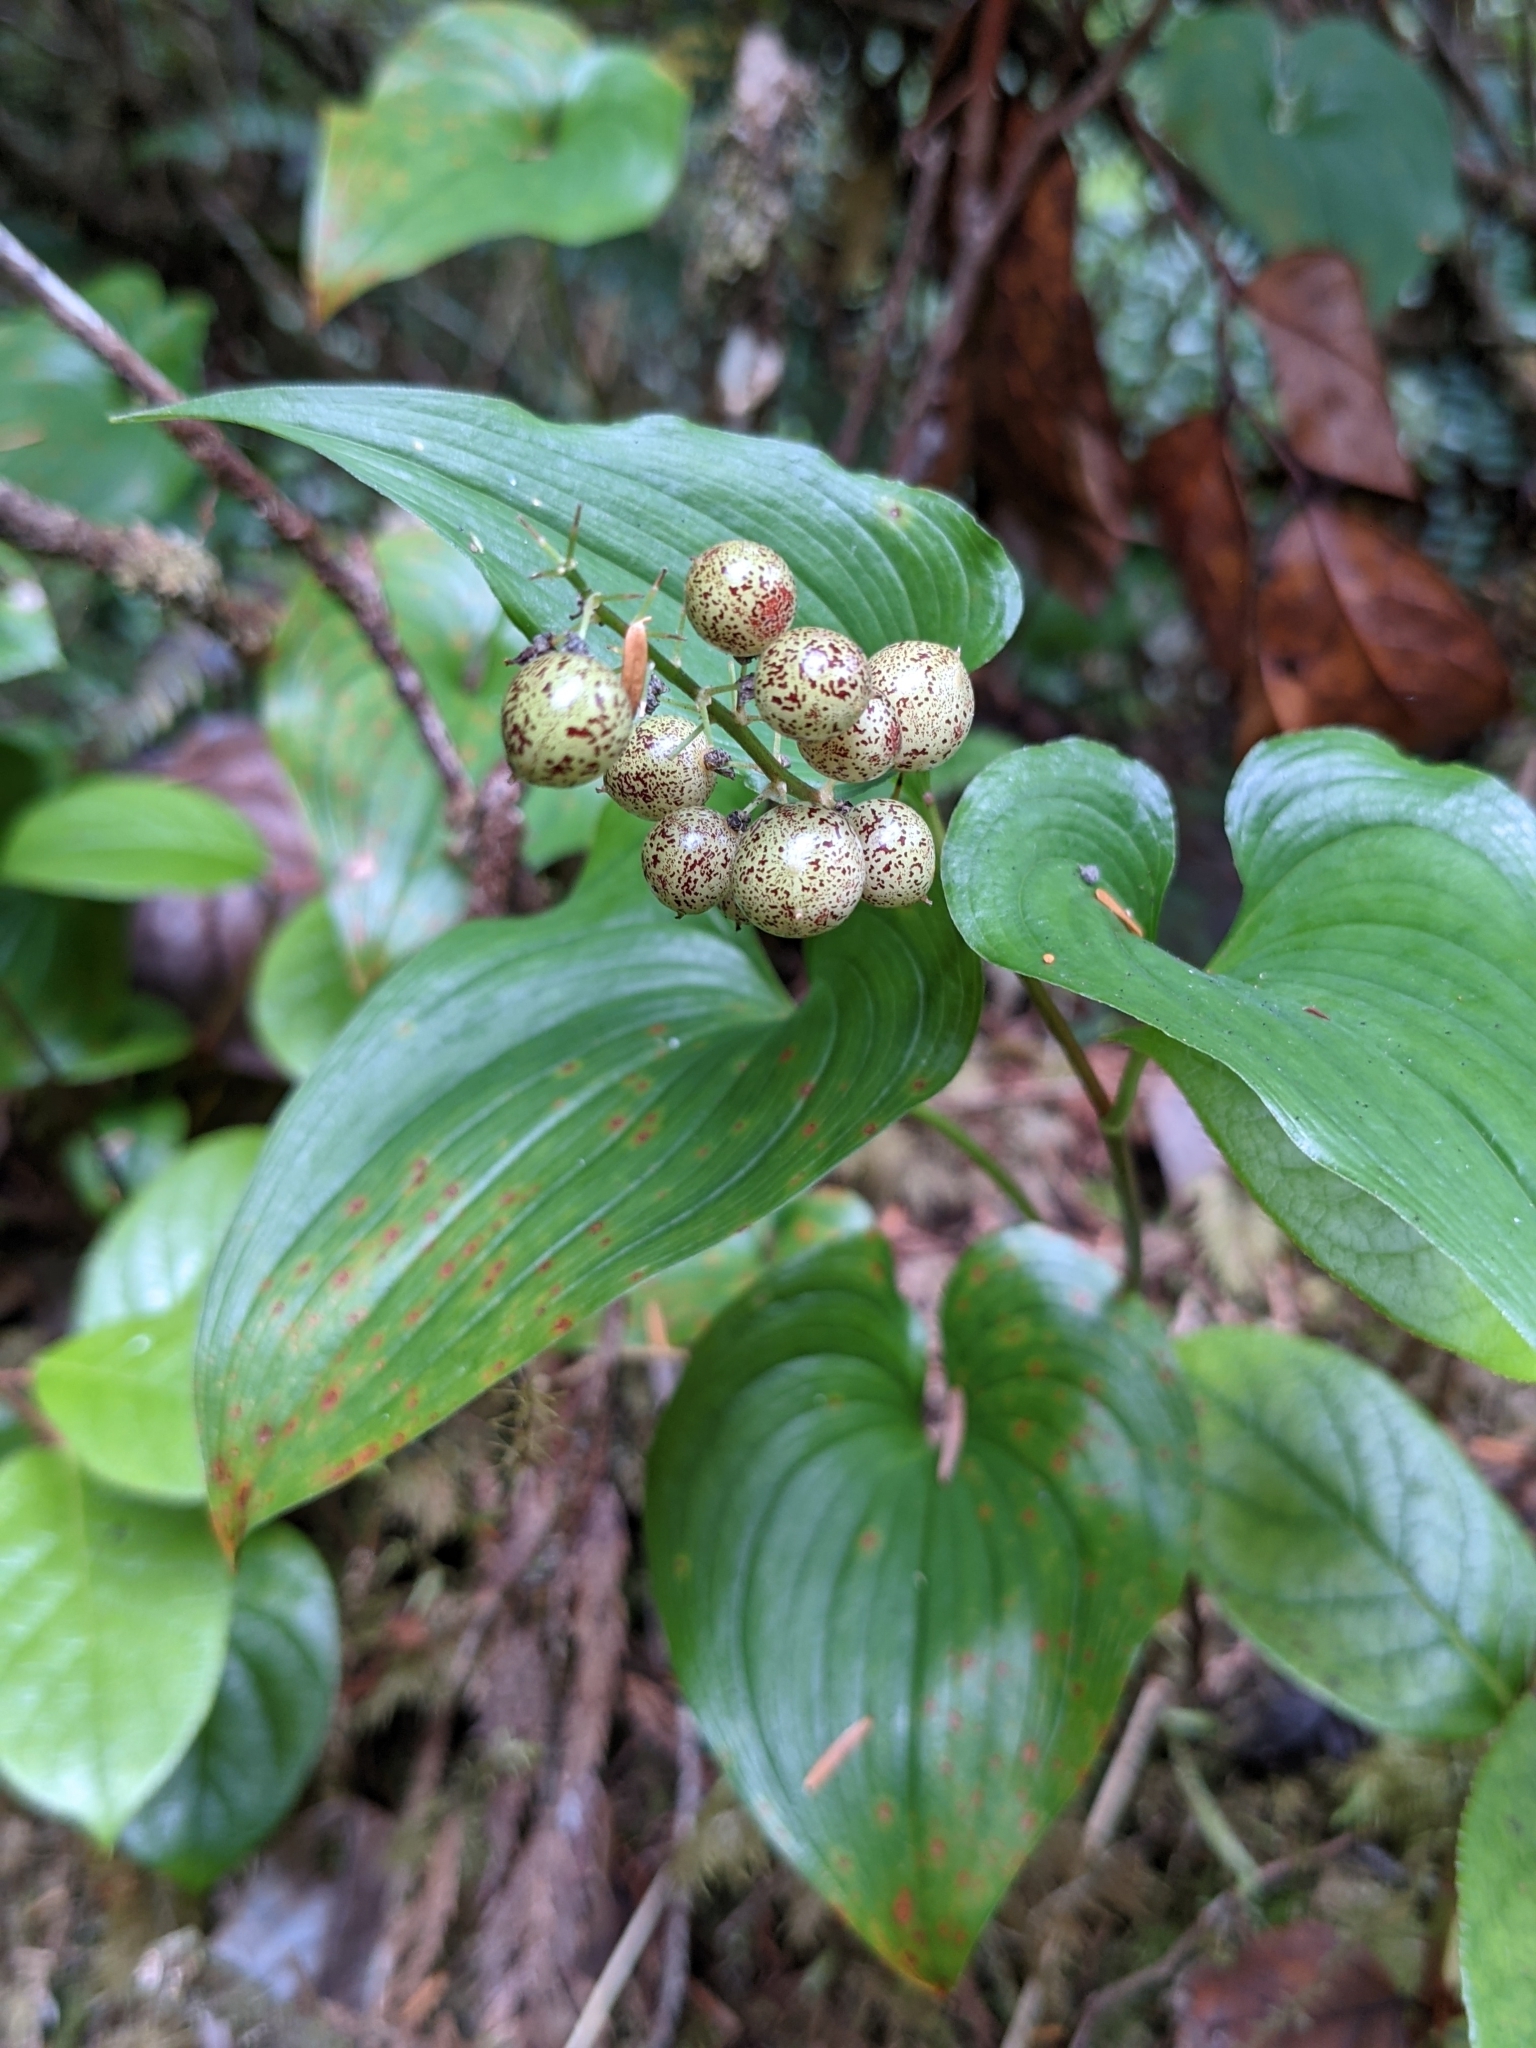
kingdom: Plantae
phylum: Tracheophyta
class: Liliopsida
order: Asparagales
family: Asparagaceae
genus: Maianthemum
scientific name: Maianthemum dilatatum
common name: False lily-of-the-valley
